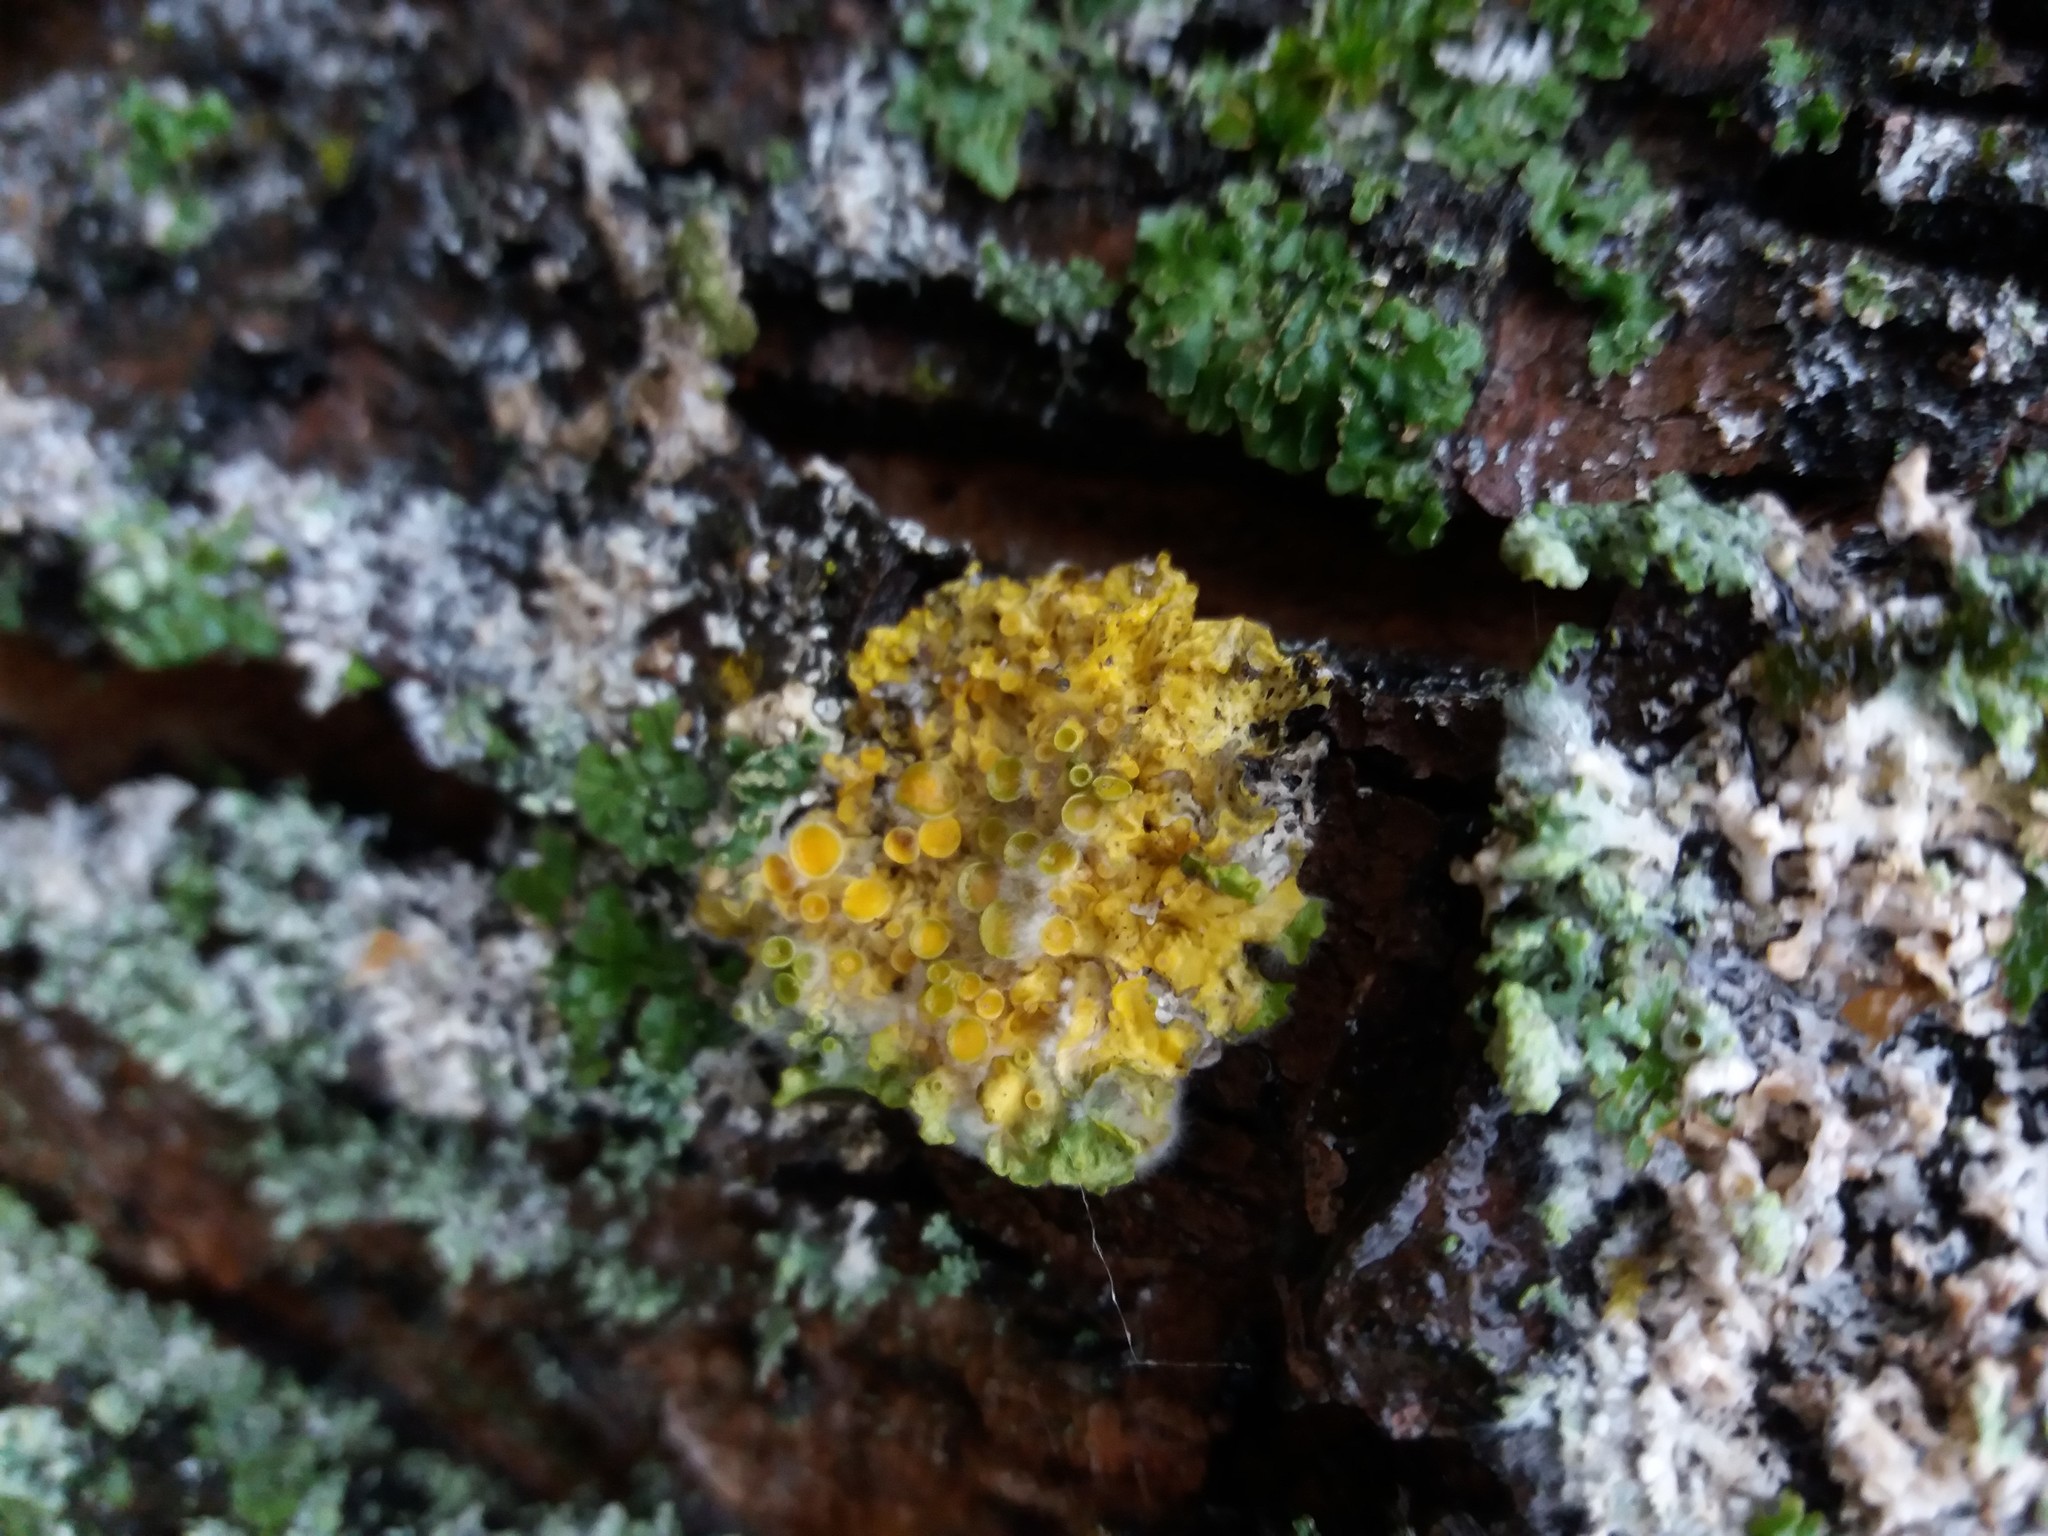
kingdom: Fungi
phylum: Ascomycota
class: Lecanoromycetes
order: Teloschistales
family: Teloschistaceae
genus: Xanthoria
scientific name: Xanthoria parietina
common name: Common orange lichen
